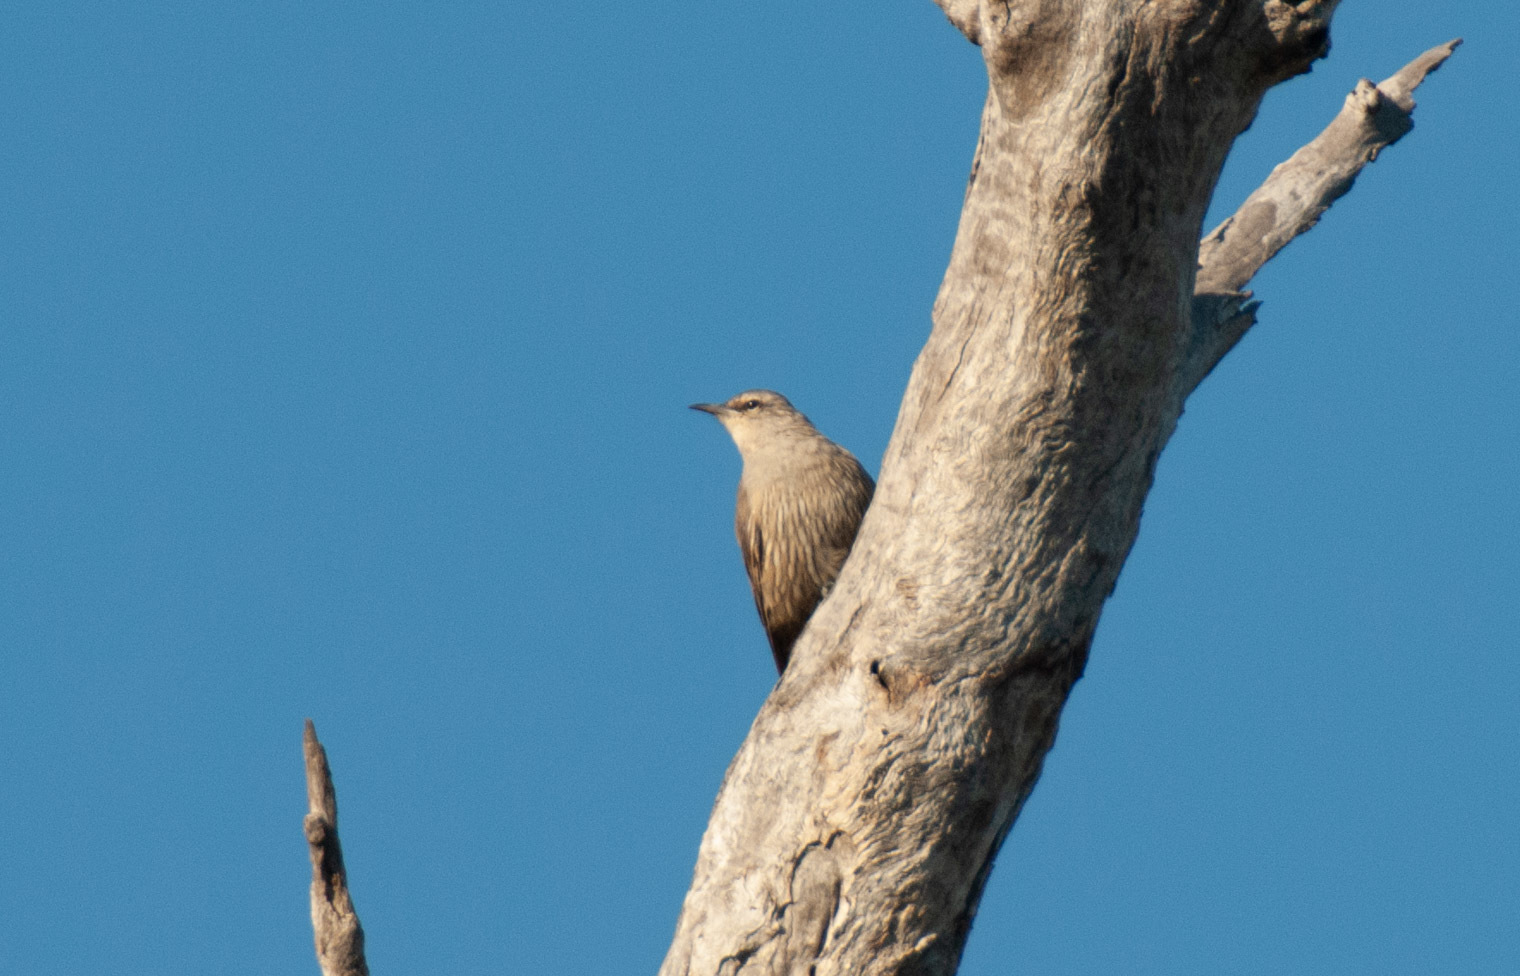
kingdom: Animalia
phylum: Chordata
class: Aves
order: Passeriformes
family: Climacteridae
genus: Climacteris
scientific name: Climacteris picumnus
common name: Brown treecreeper
